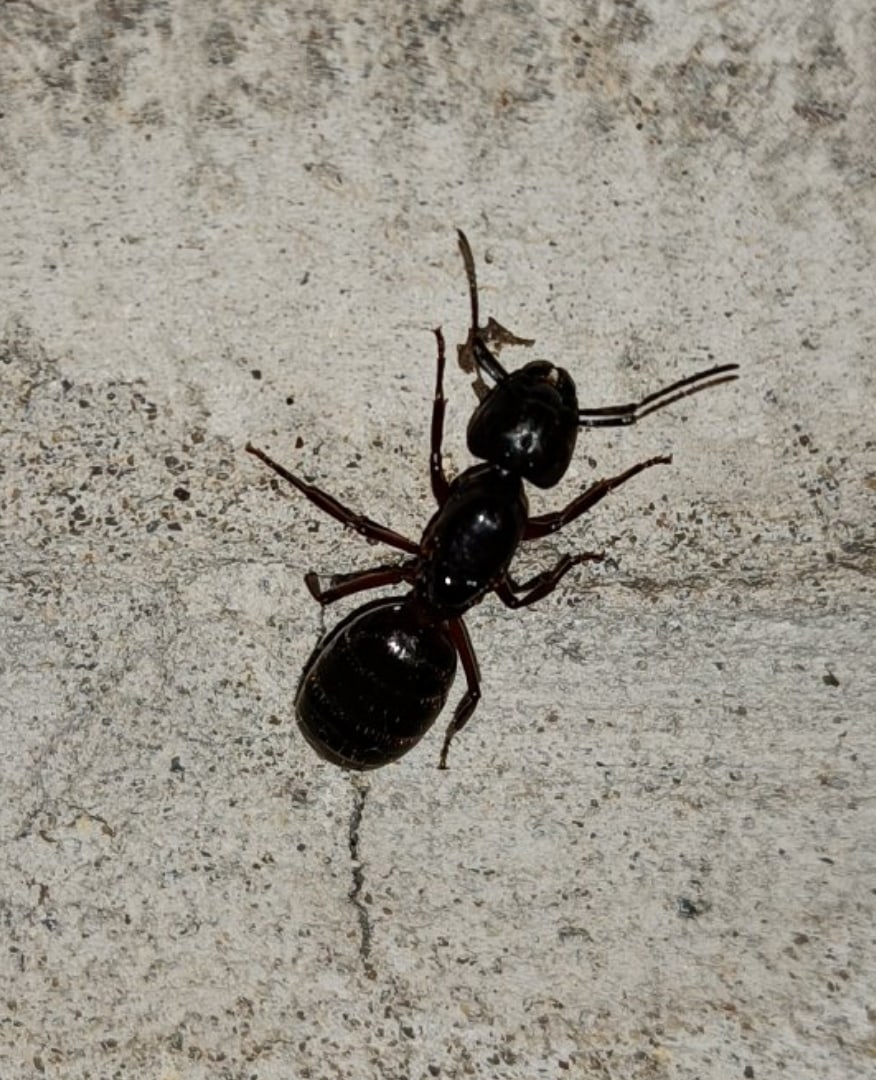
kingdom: Animalia
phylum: Arthropoda
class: Insecta
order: Hymenoptera
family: Formicidae
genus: Camponotus
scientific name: Camponotus herculeanus
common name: Hercules ant
